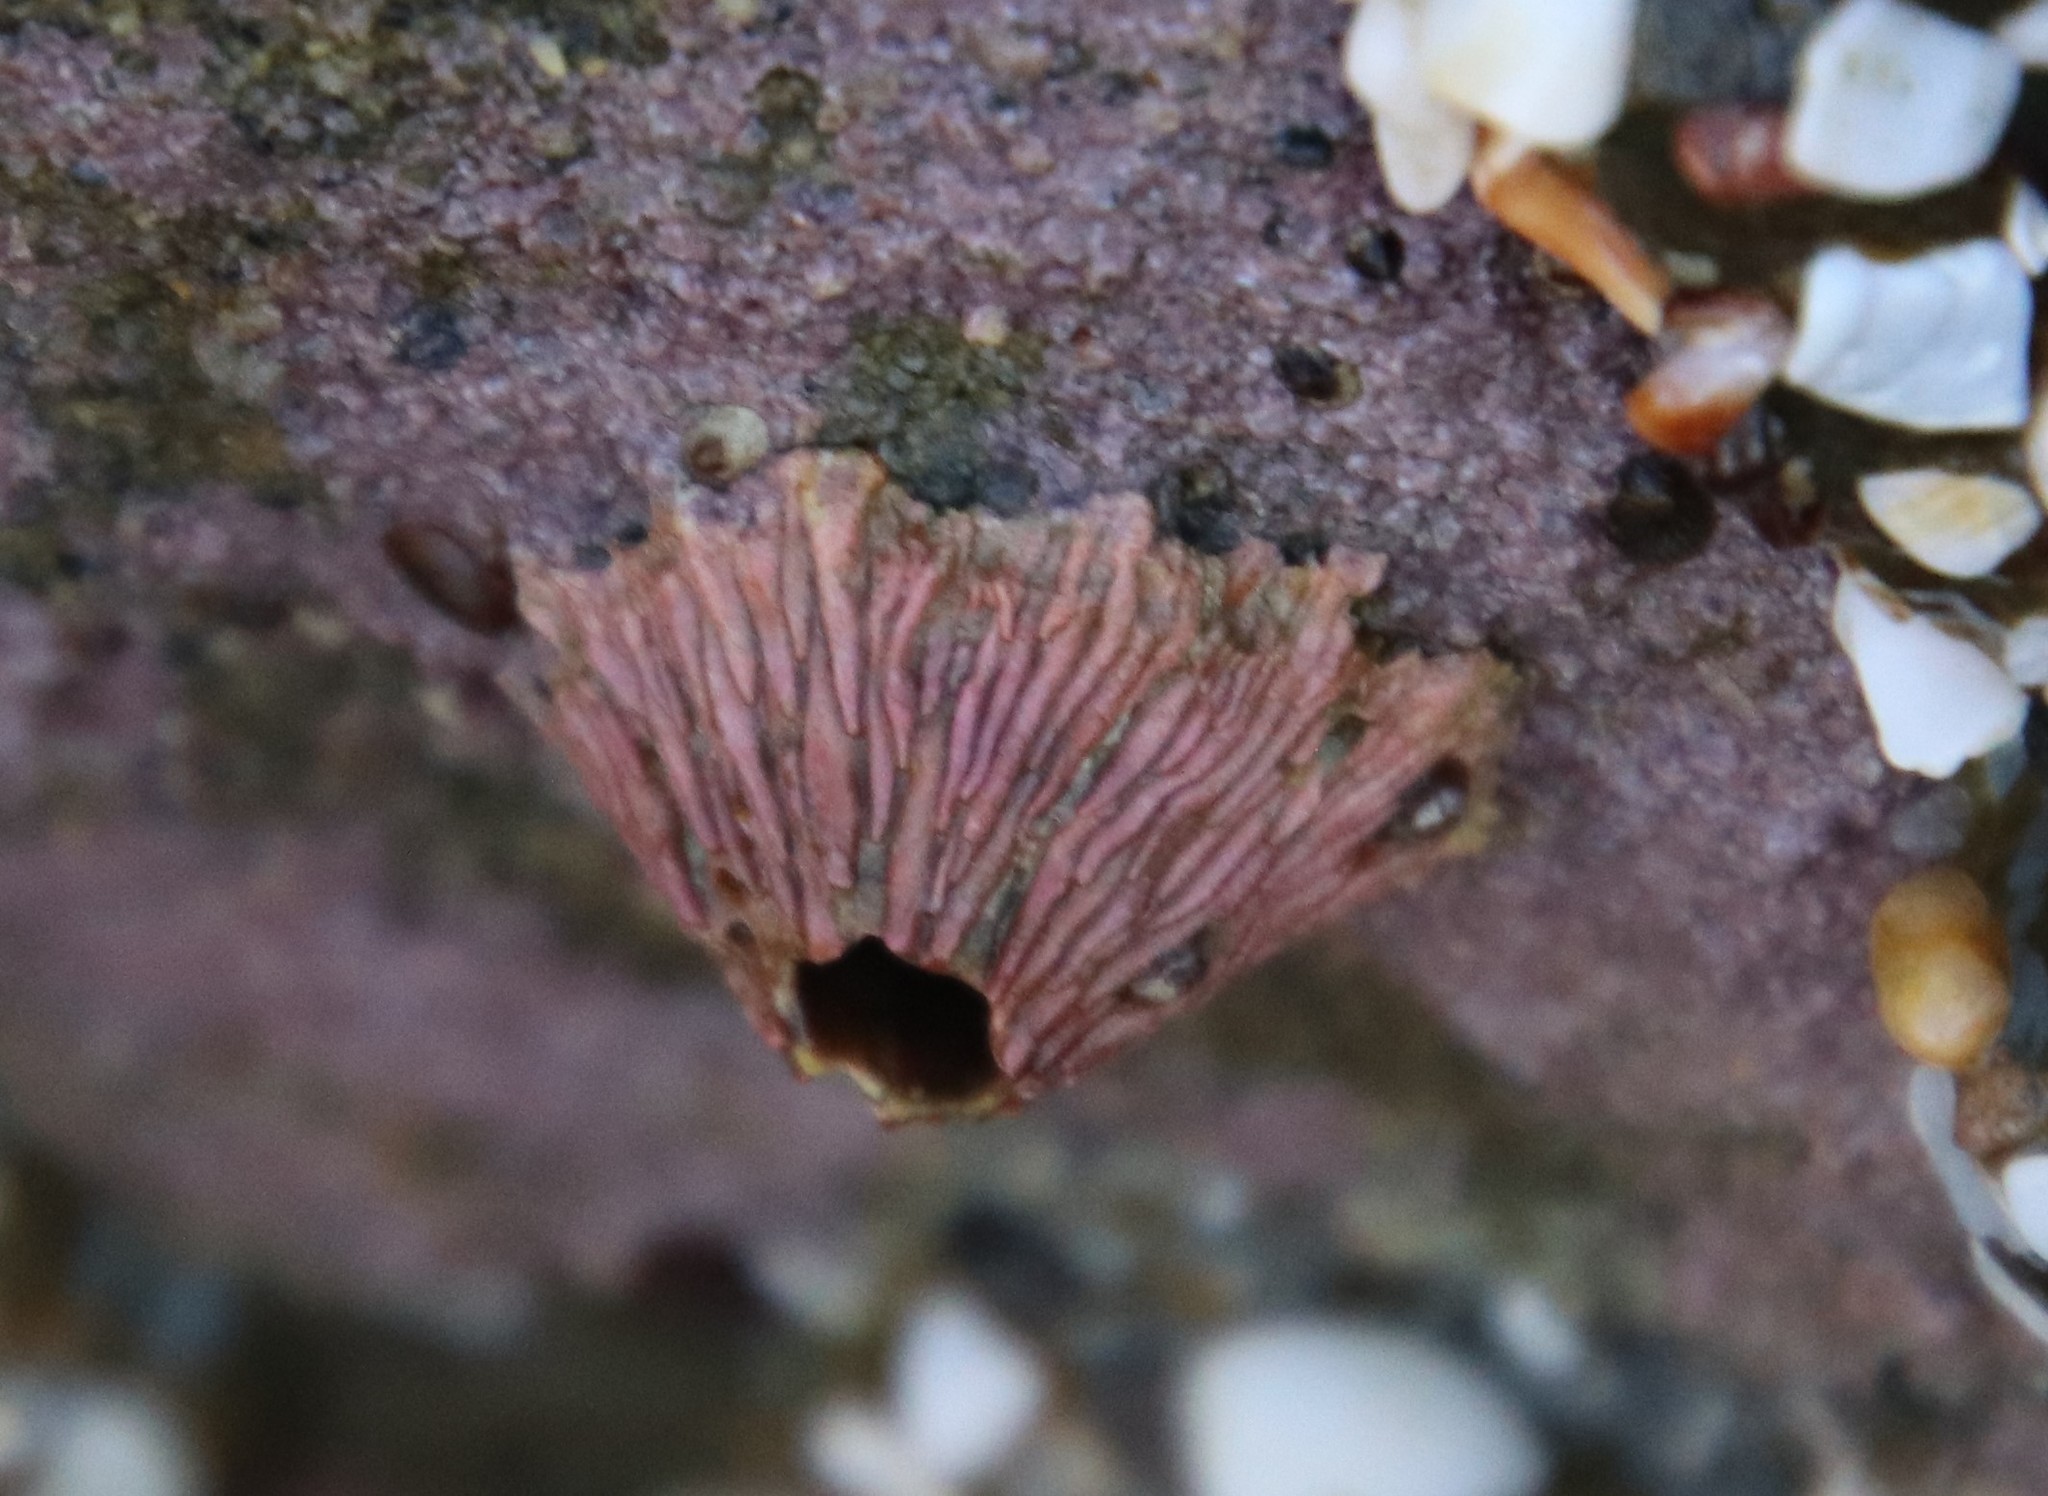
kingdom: Animalia
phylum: Arthropoda
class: Maxillopoda
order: Sessilia
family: Tetraclitidae
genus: Tetraclita
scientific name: Tetraclita rubescens
